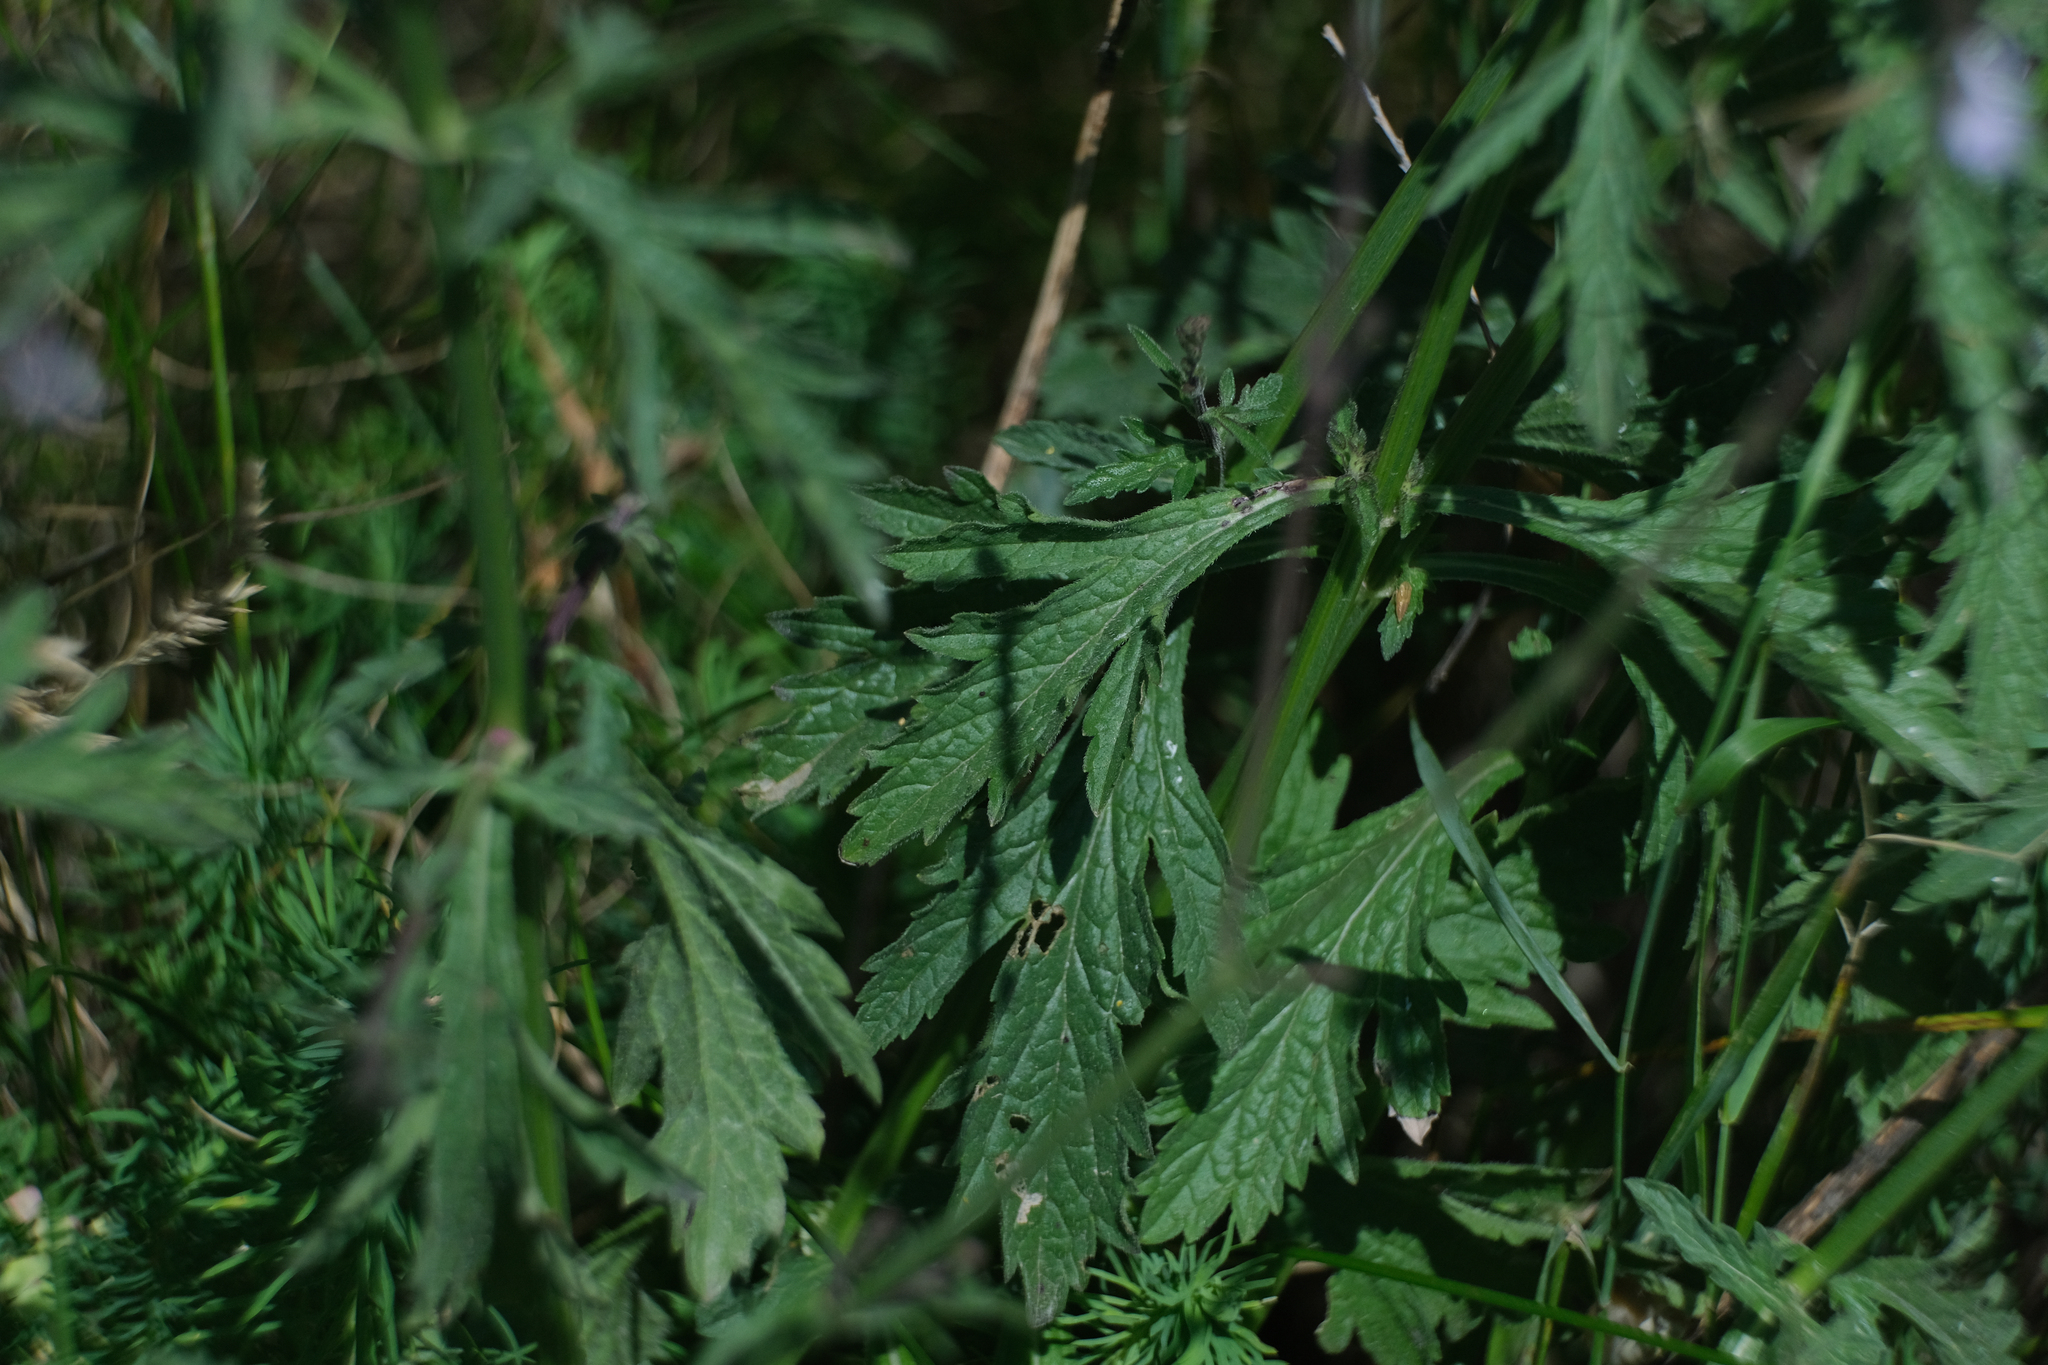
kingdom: Plantae
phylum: Tracheophyta
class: Magnoliopsida
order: Lamiales
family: Verbenaceae
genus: Verbena
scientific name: Verbena officinalis
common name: Vervain
